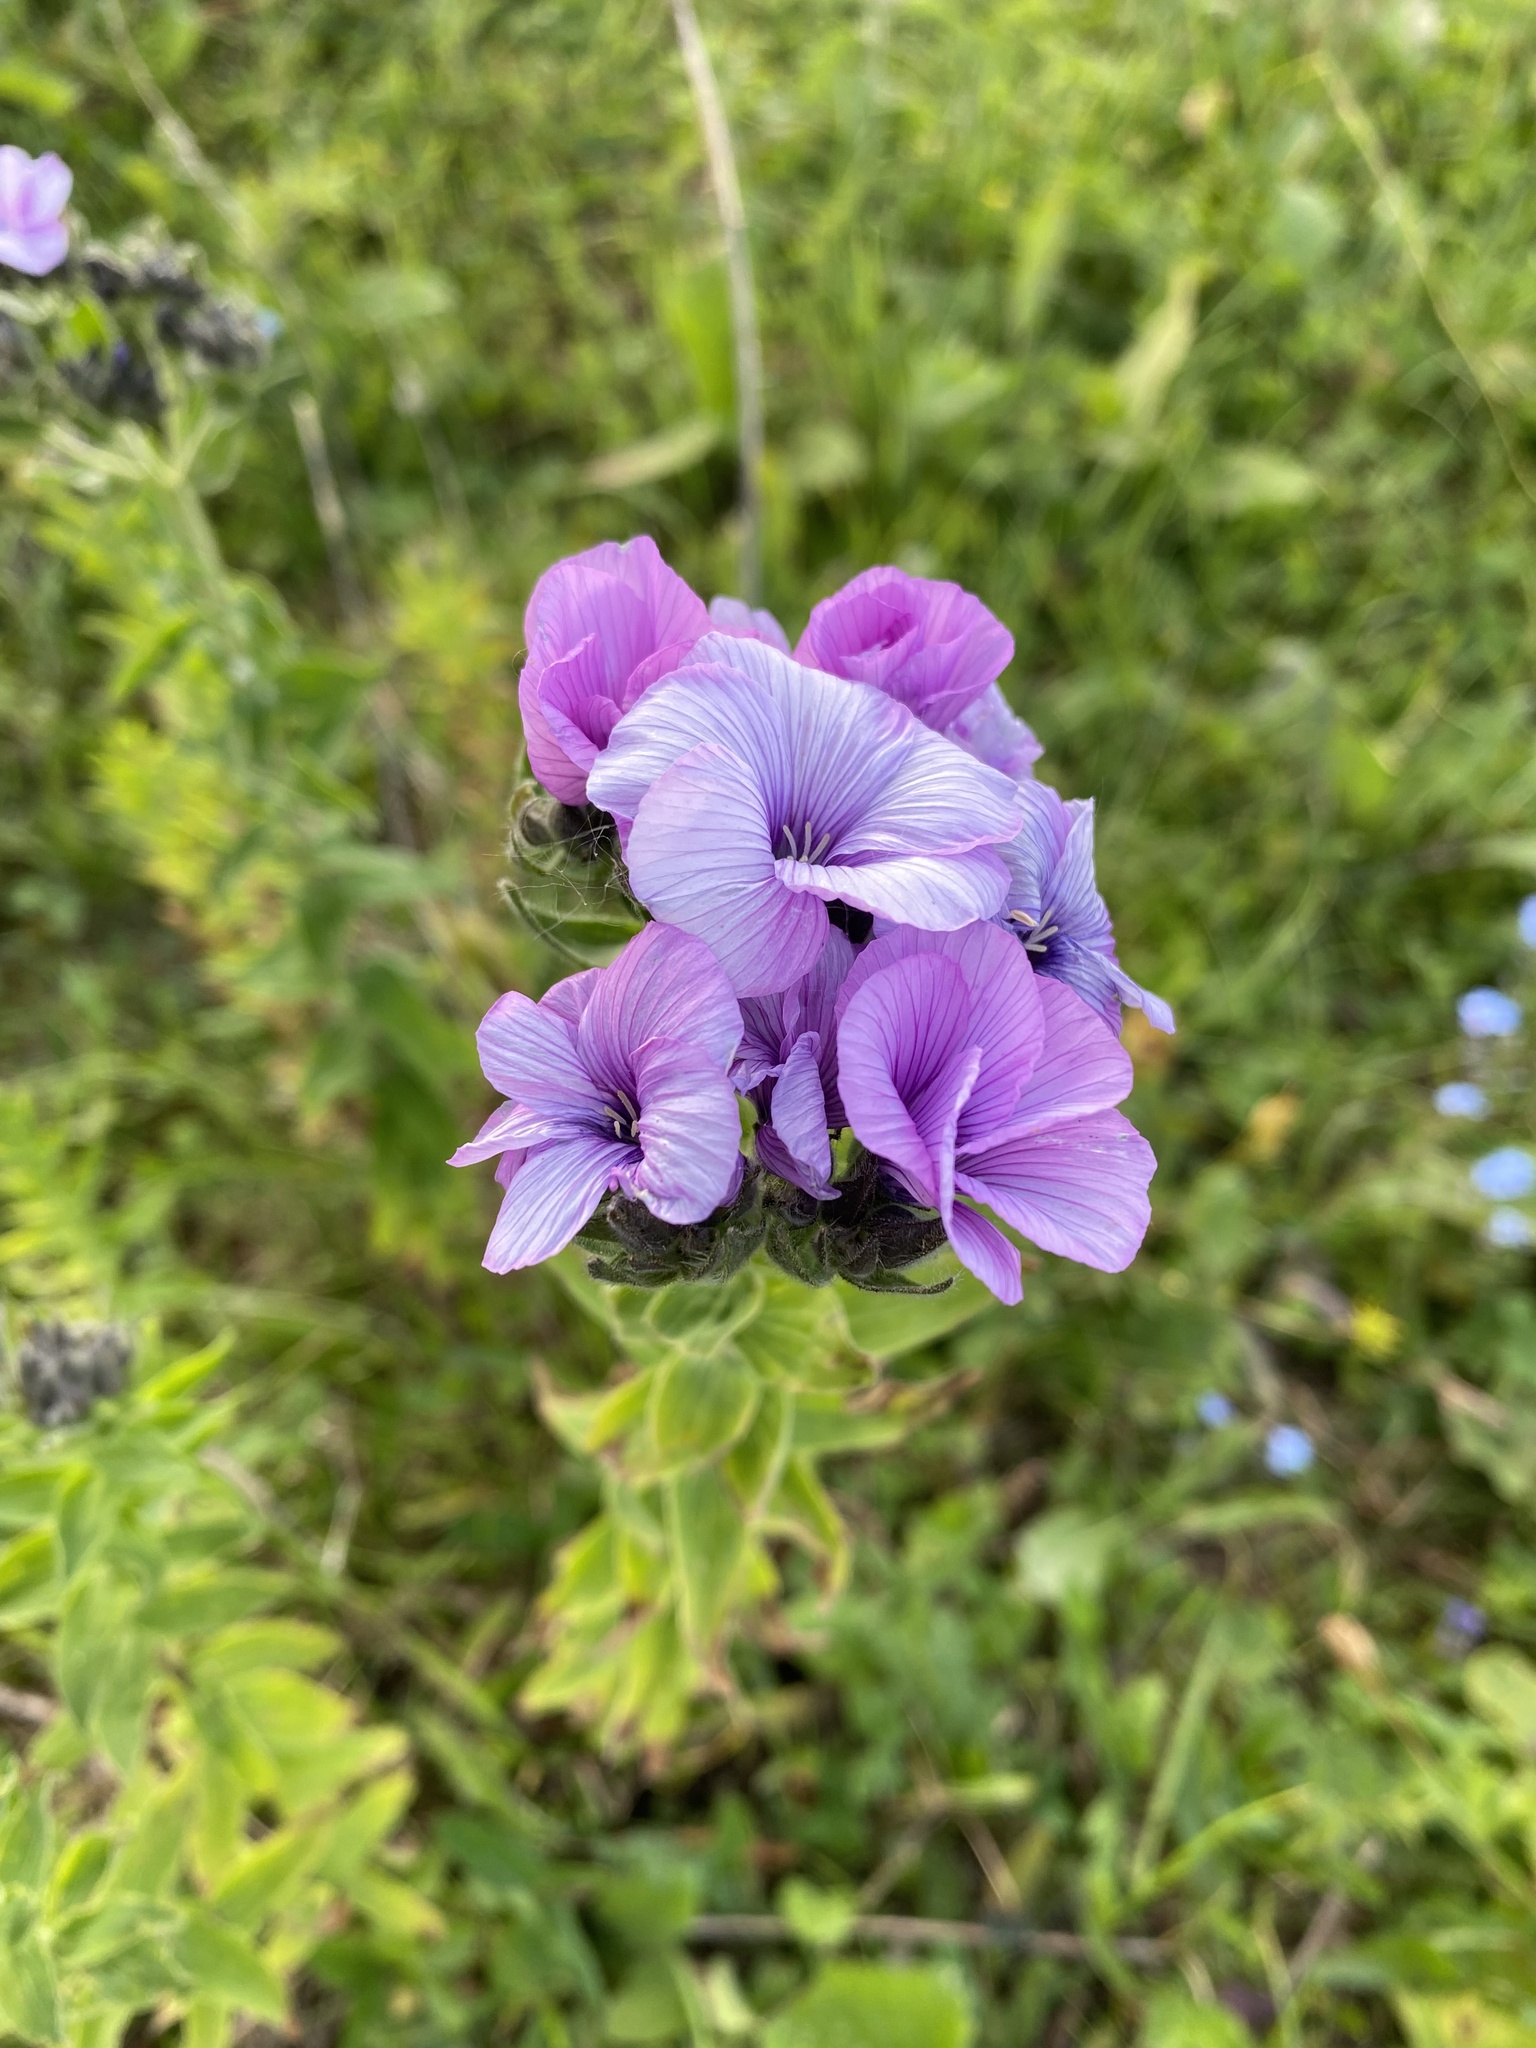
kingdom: Plantae
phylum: Tracheophyta
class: Magnoliopsida
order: Malpighiales
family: Linaceae
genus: Linum
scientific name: Linum hypericifolium
